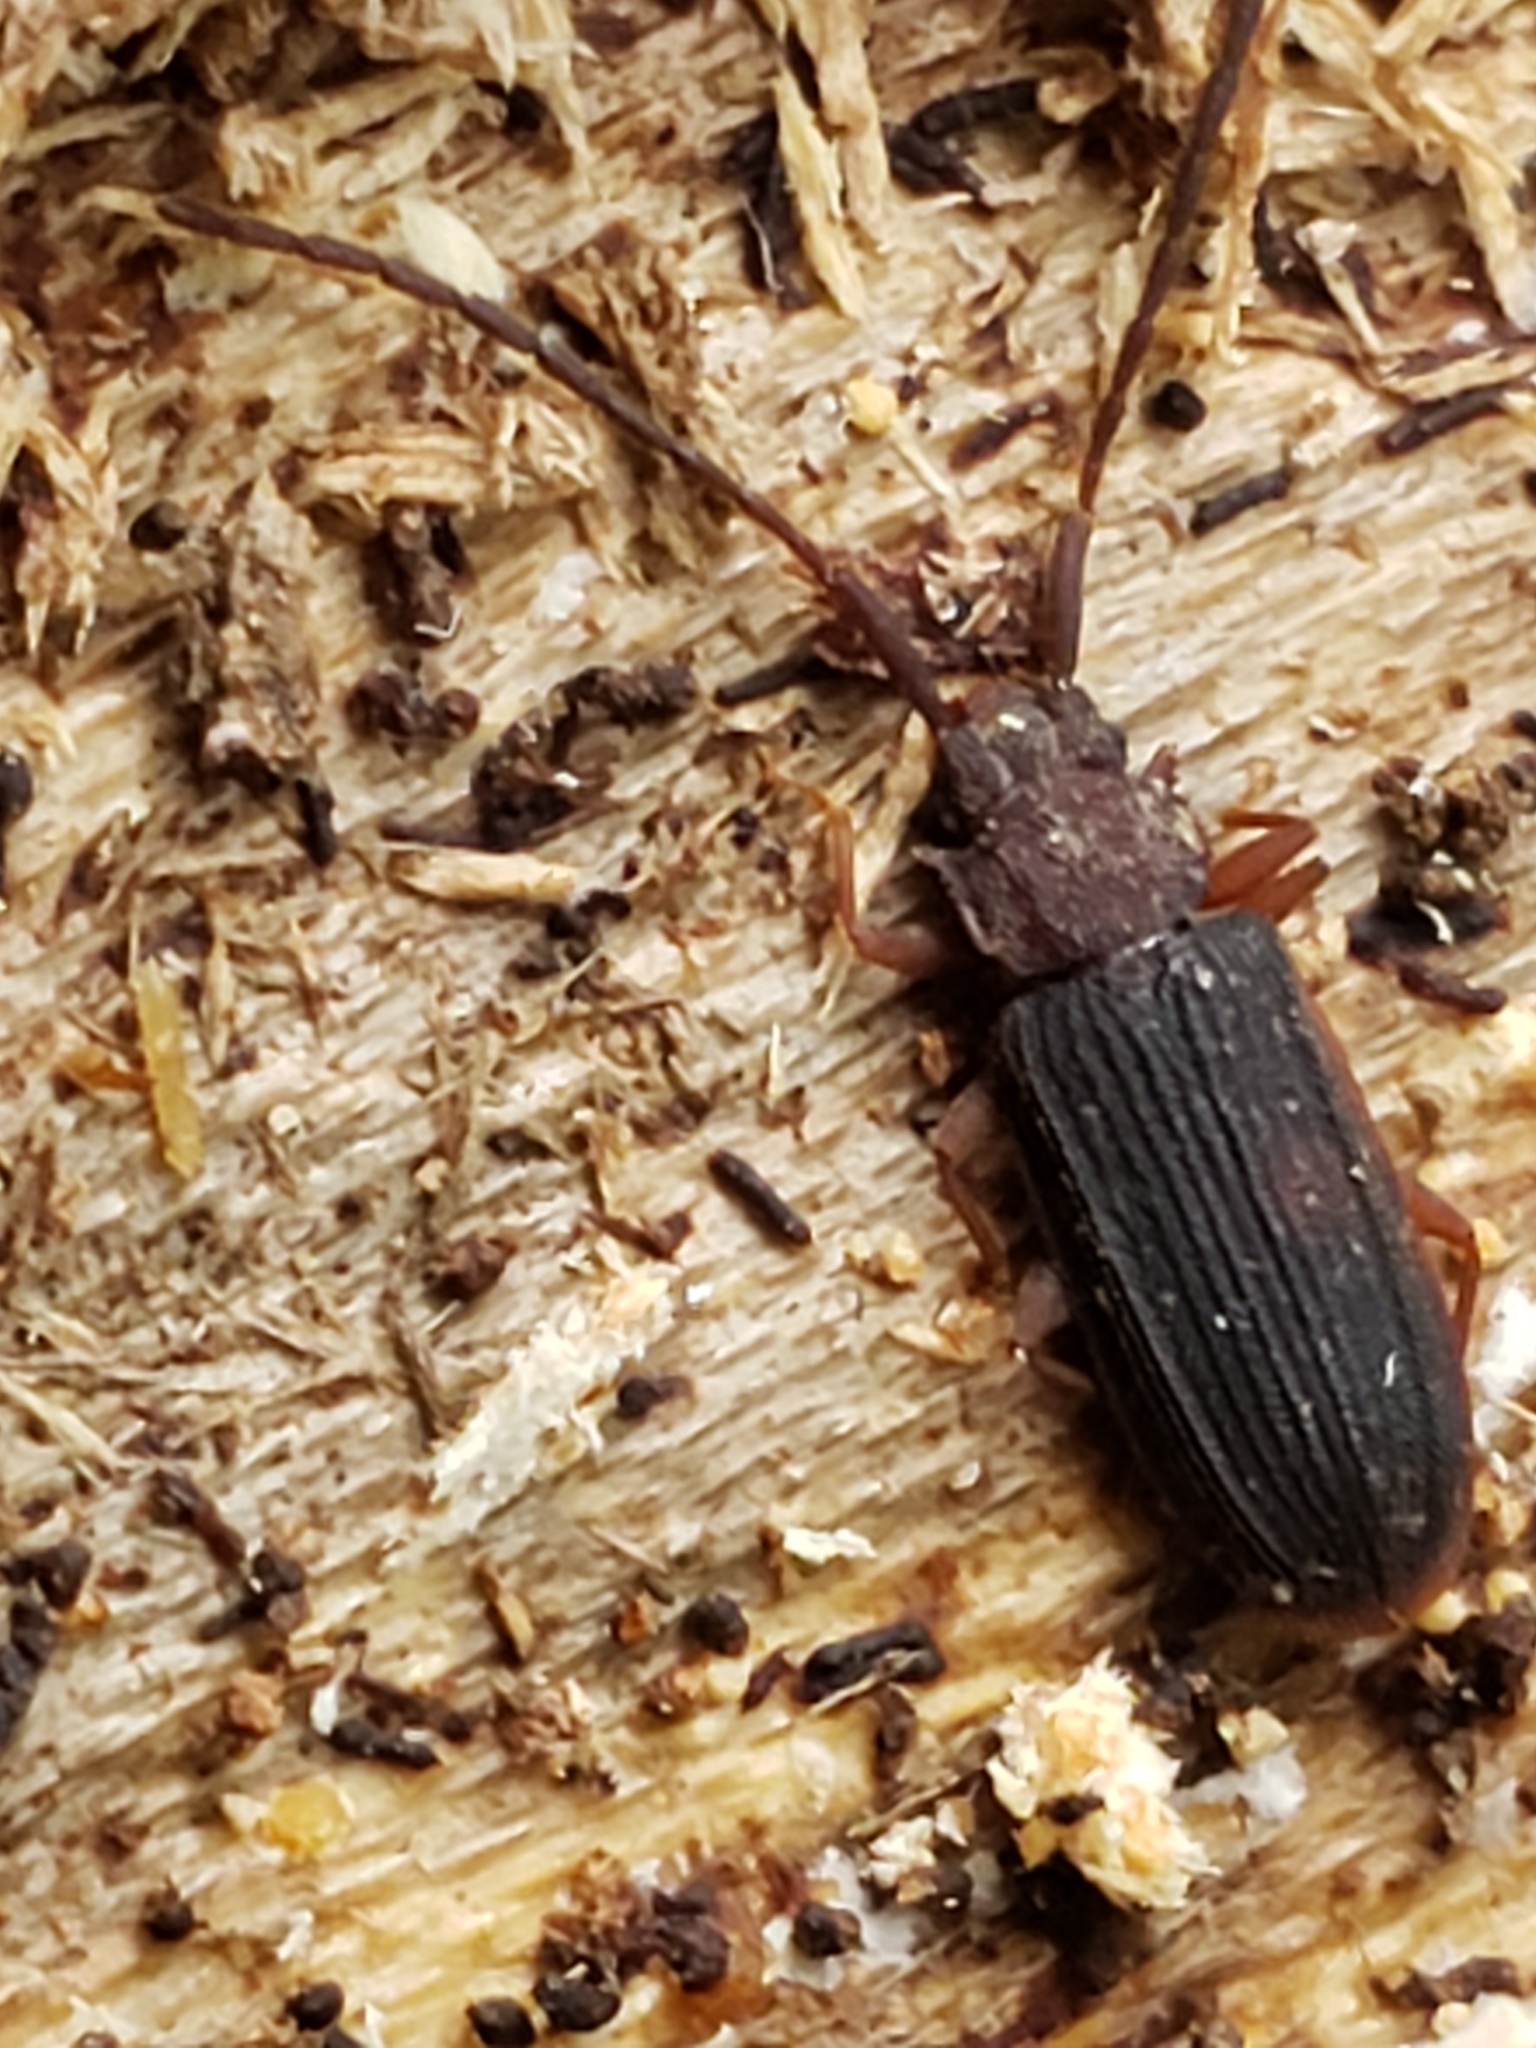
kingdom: Animalia
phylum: Arthropoda
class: Insecta
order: Coleoptera
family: Silvanidae
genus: Uleiota
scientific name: Uleiota dubia
